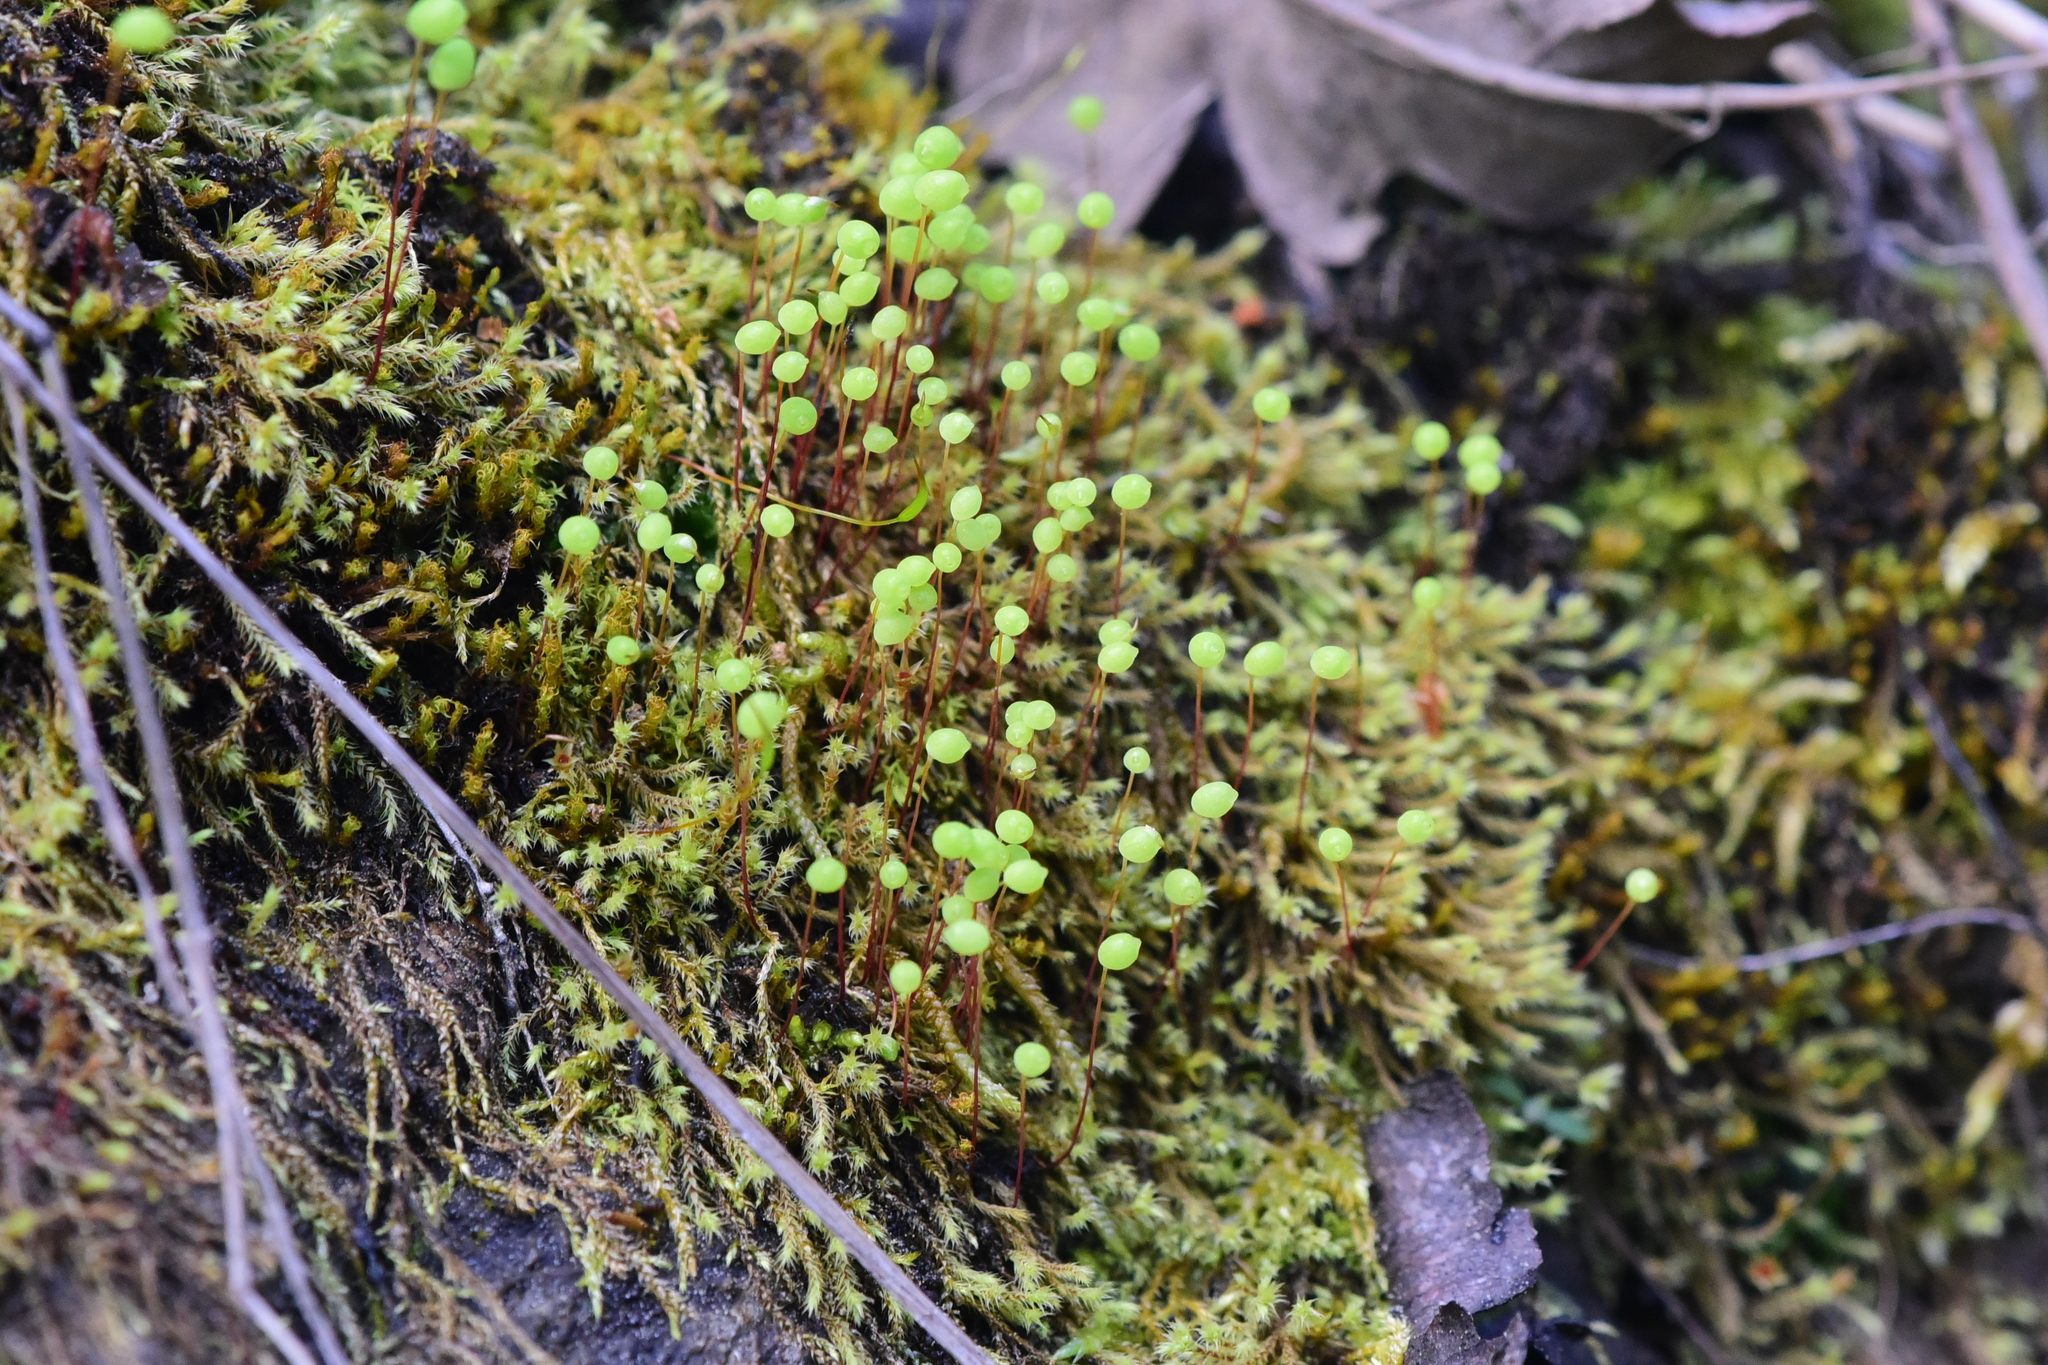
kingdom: Plantae
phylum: Bryophyta
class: Bryopsida
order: Bartramiales
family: Bartramiaceae
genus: Philonotis
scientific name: Philonotis fontana
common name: Fountain apple-moss
